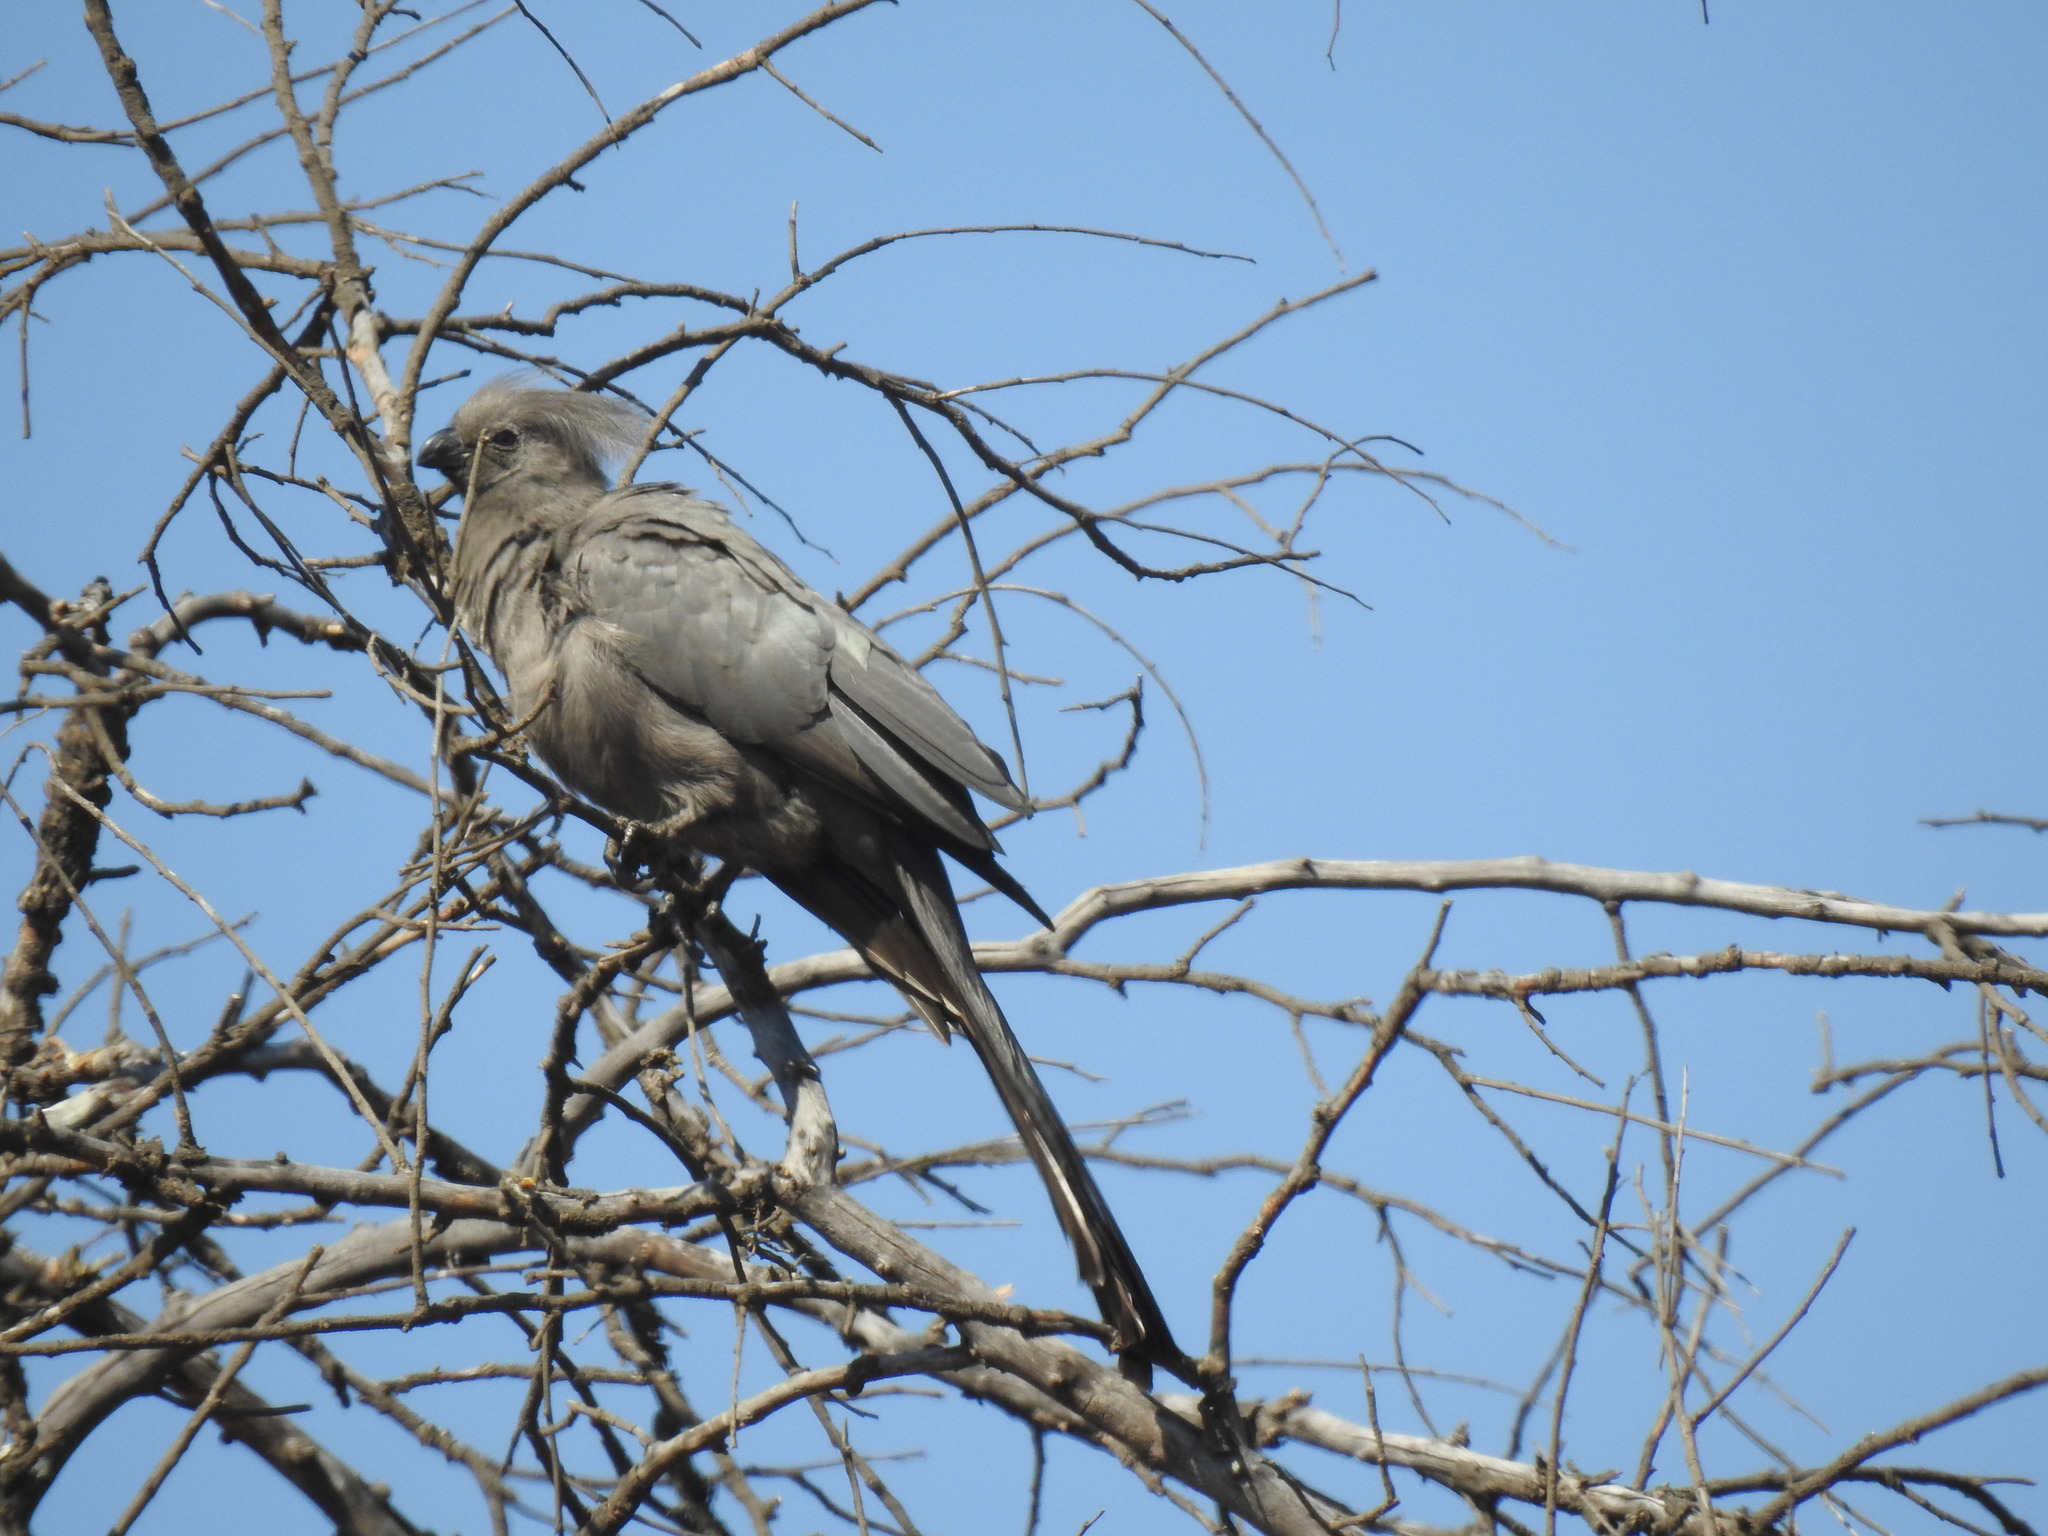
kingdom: Animalia
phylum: Chordata
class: Aves
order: Musophagiformes
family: Musophagidae
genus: Corythaixoides
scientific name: Corythaixoides concolor
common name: Grey go-away-bird
